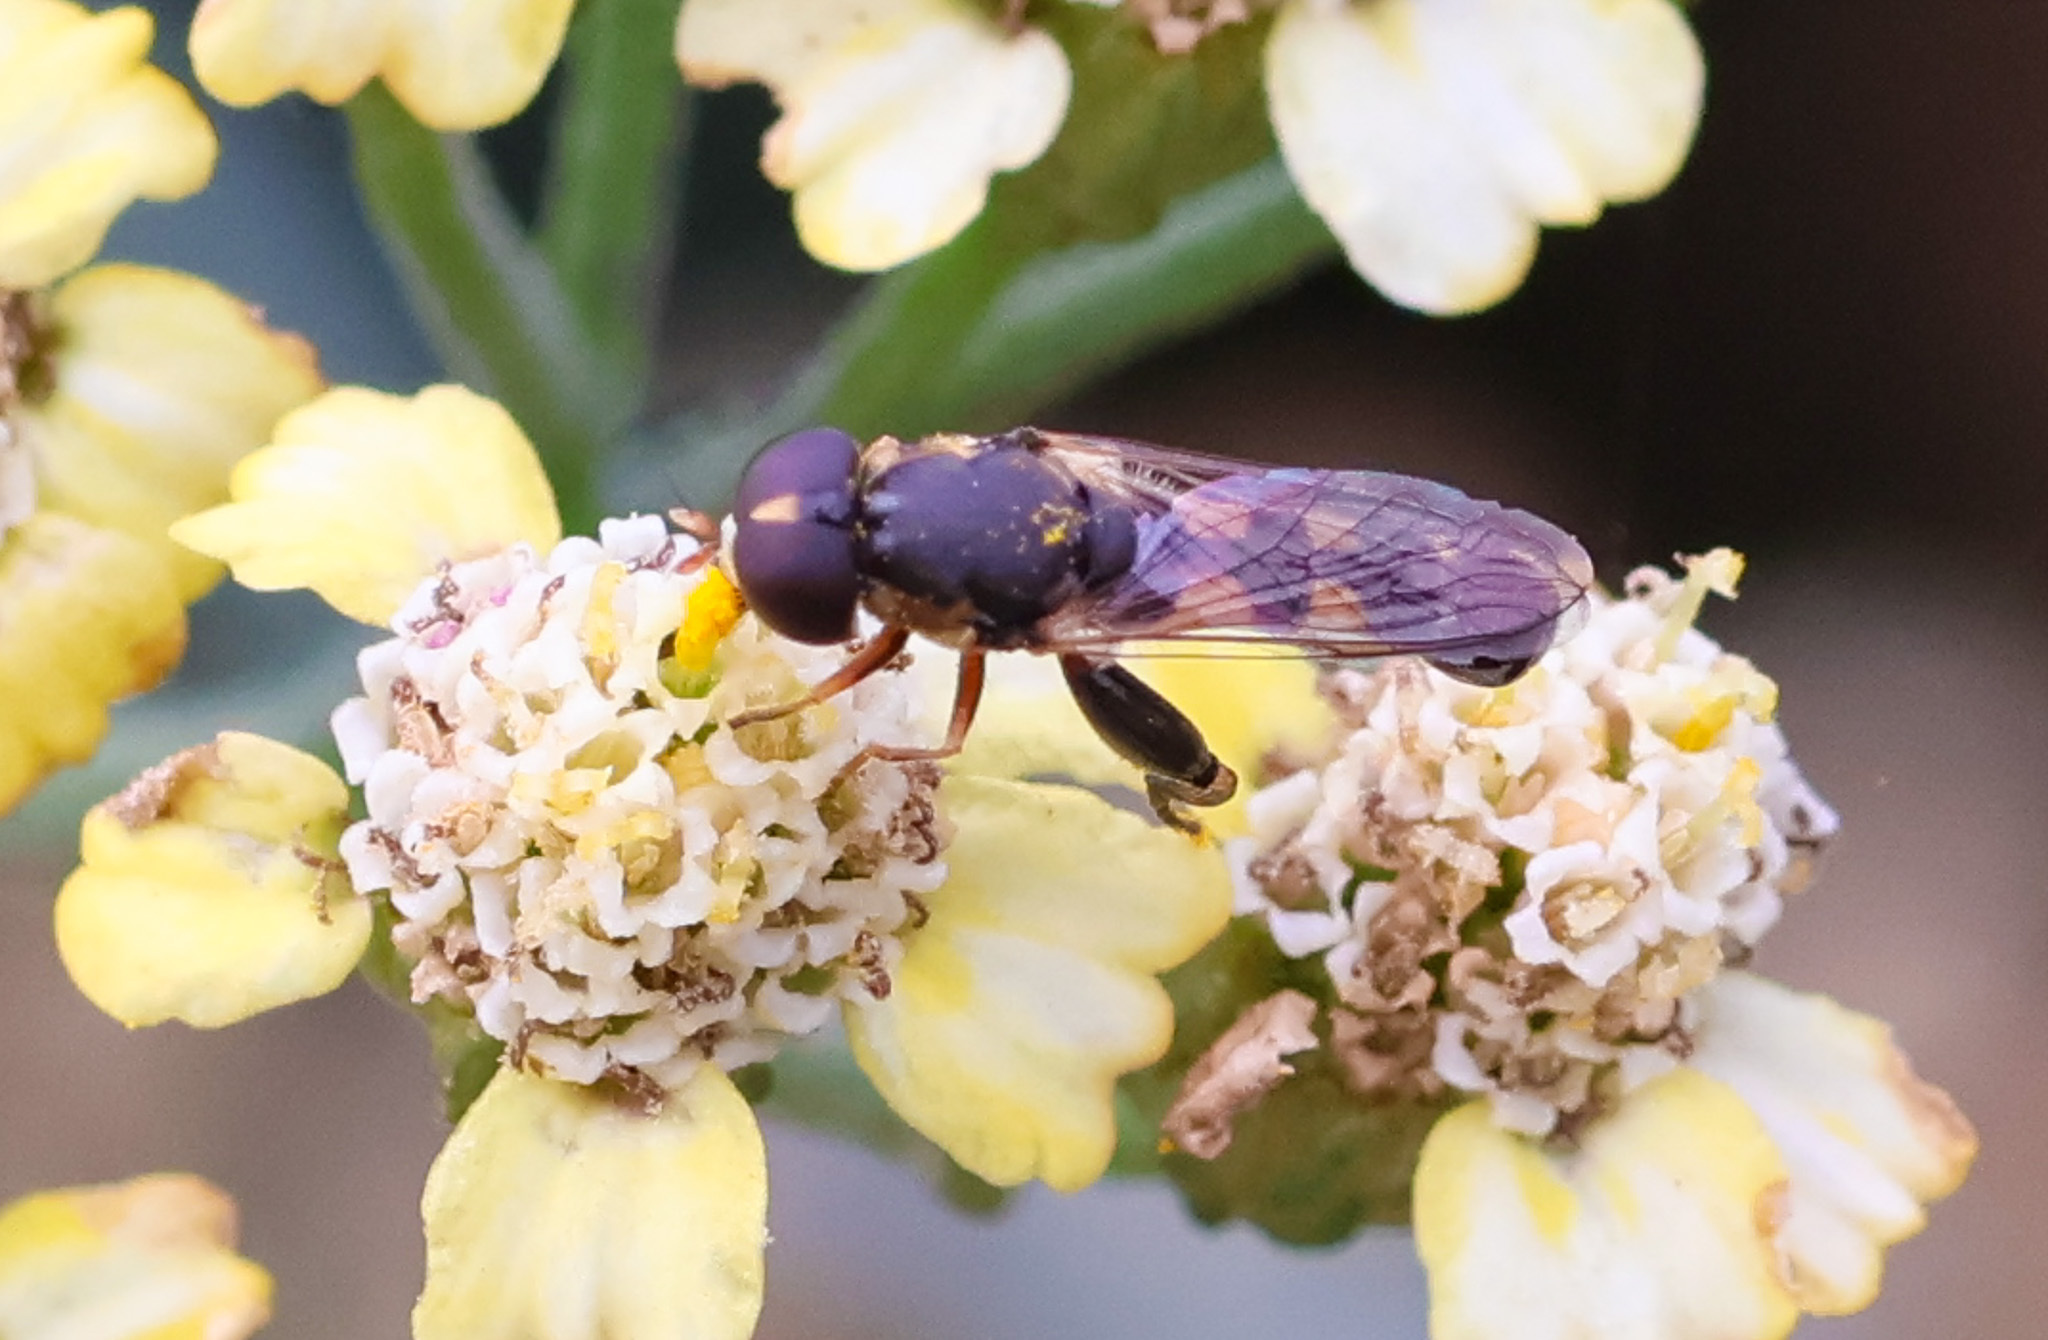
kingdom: Animalia
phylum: Arthropoda
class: Insecta
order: Diptera
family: Syrphidae
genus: Syritta
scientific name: Syritta pipiens
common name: Hover fly
